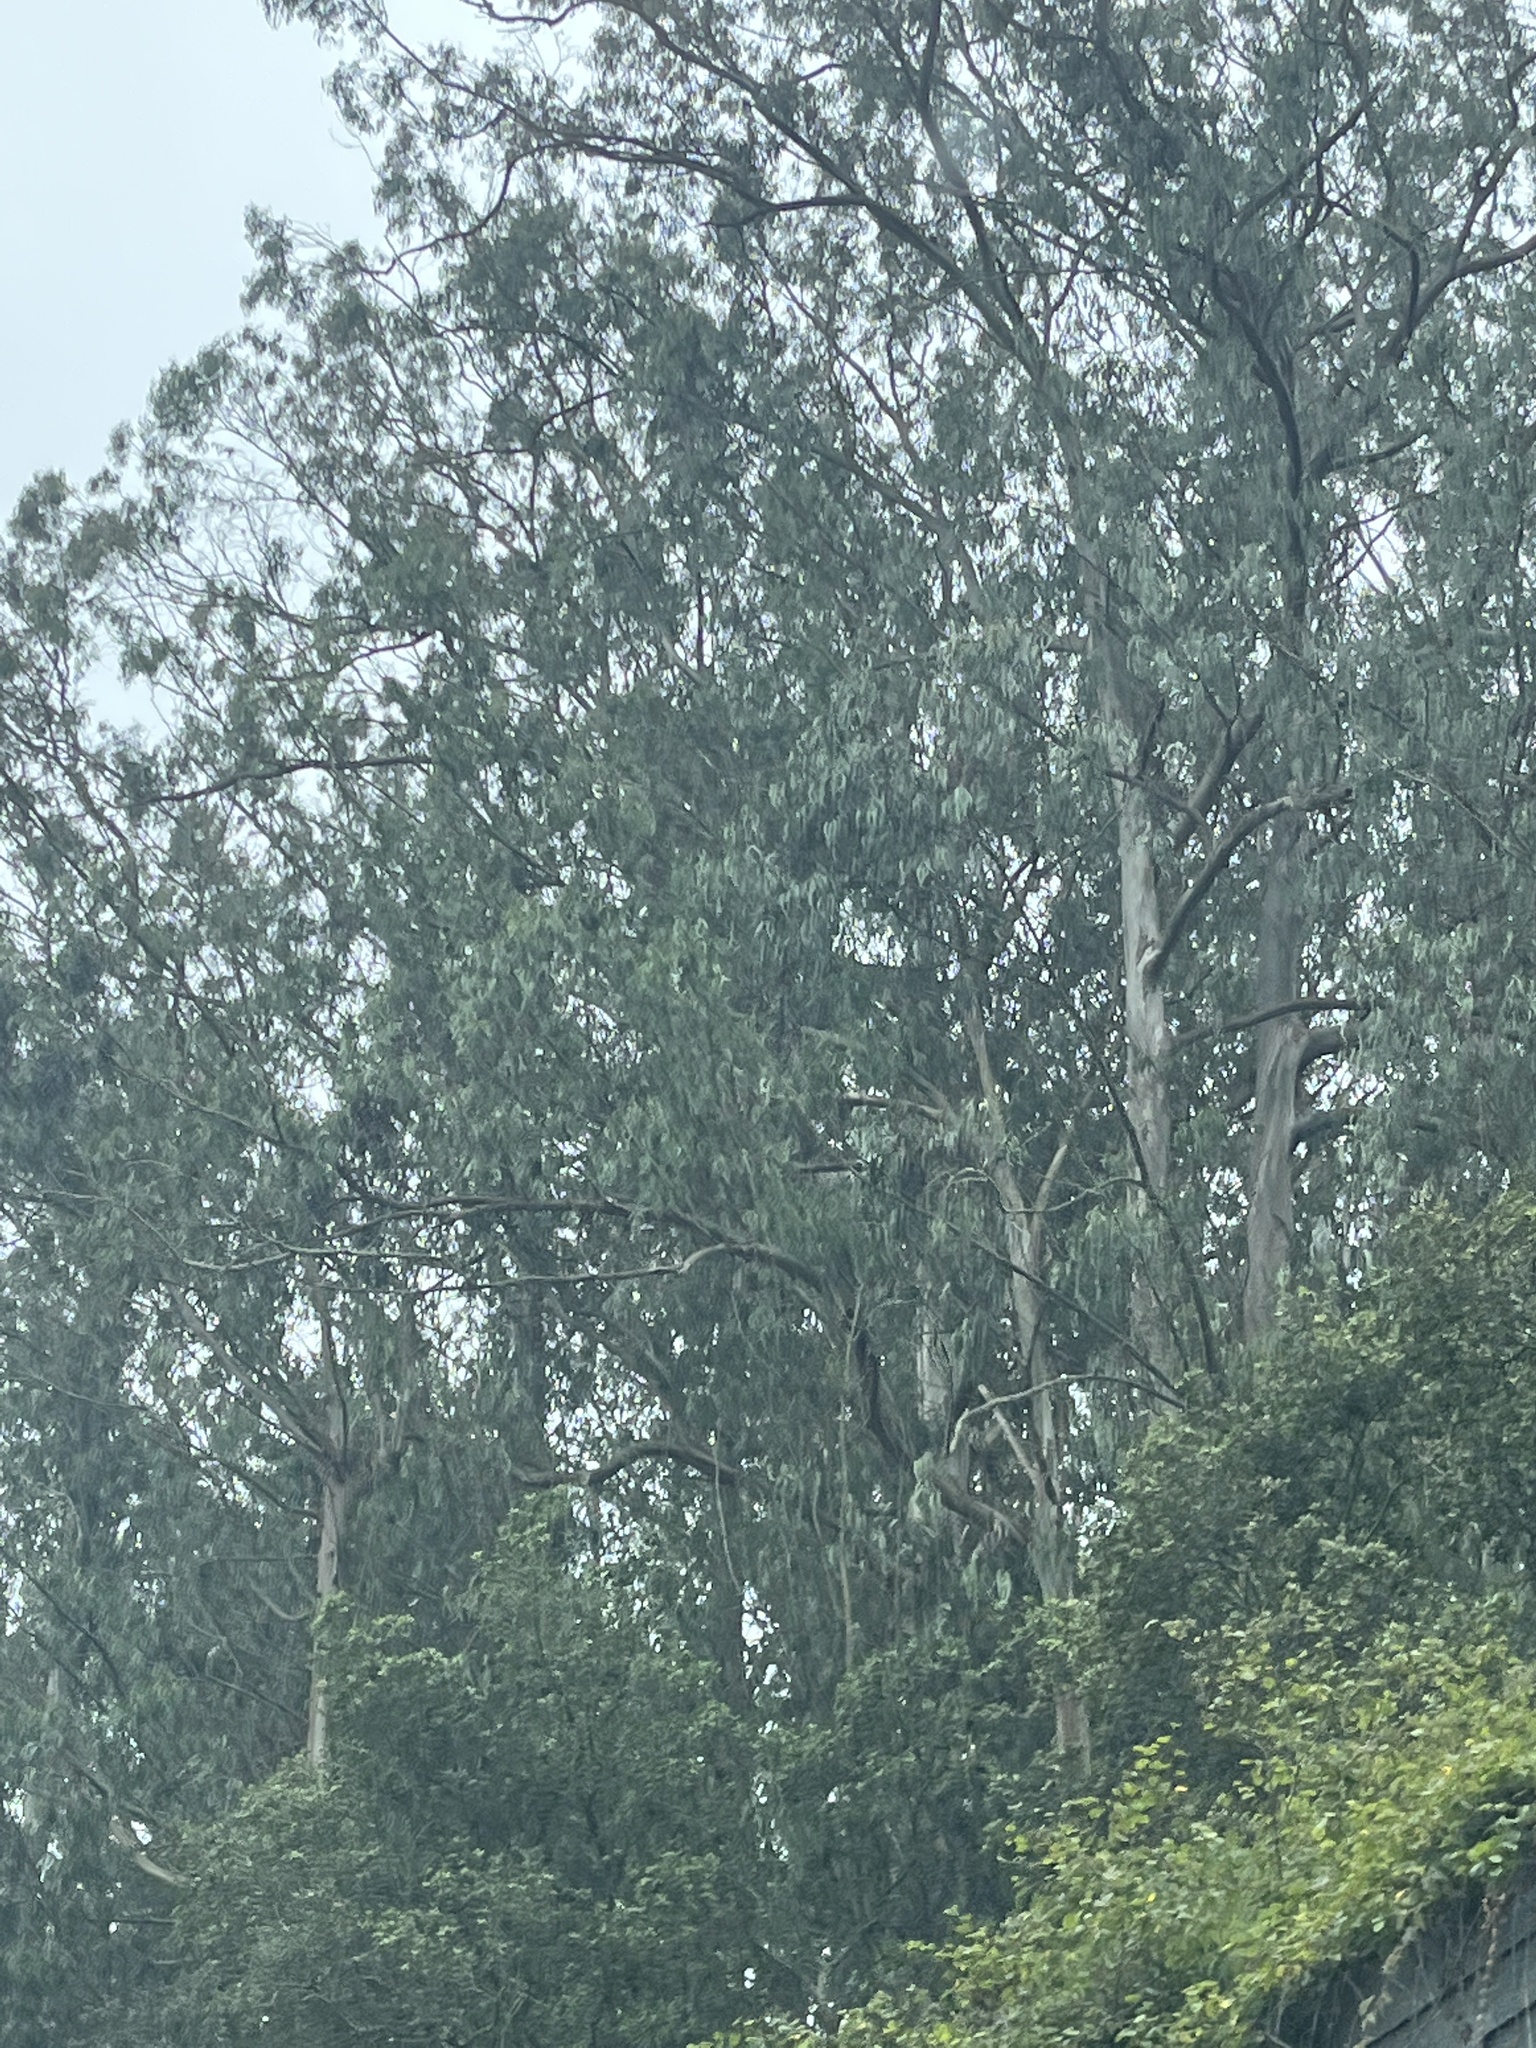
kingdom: Plantae
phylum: Tracheophyta
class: Magnoliopsida
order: Myrtales
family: Myrtaceae
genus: Eucalyptus
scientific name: Eucalyptus globulus
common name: Southern blue-gum
